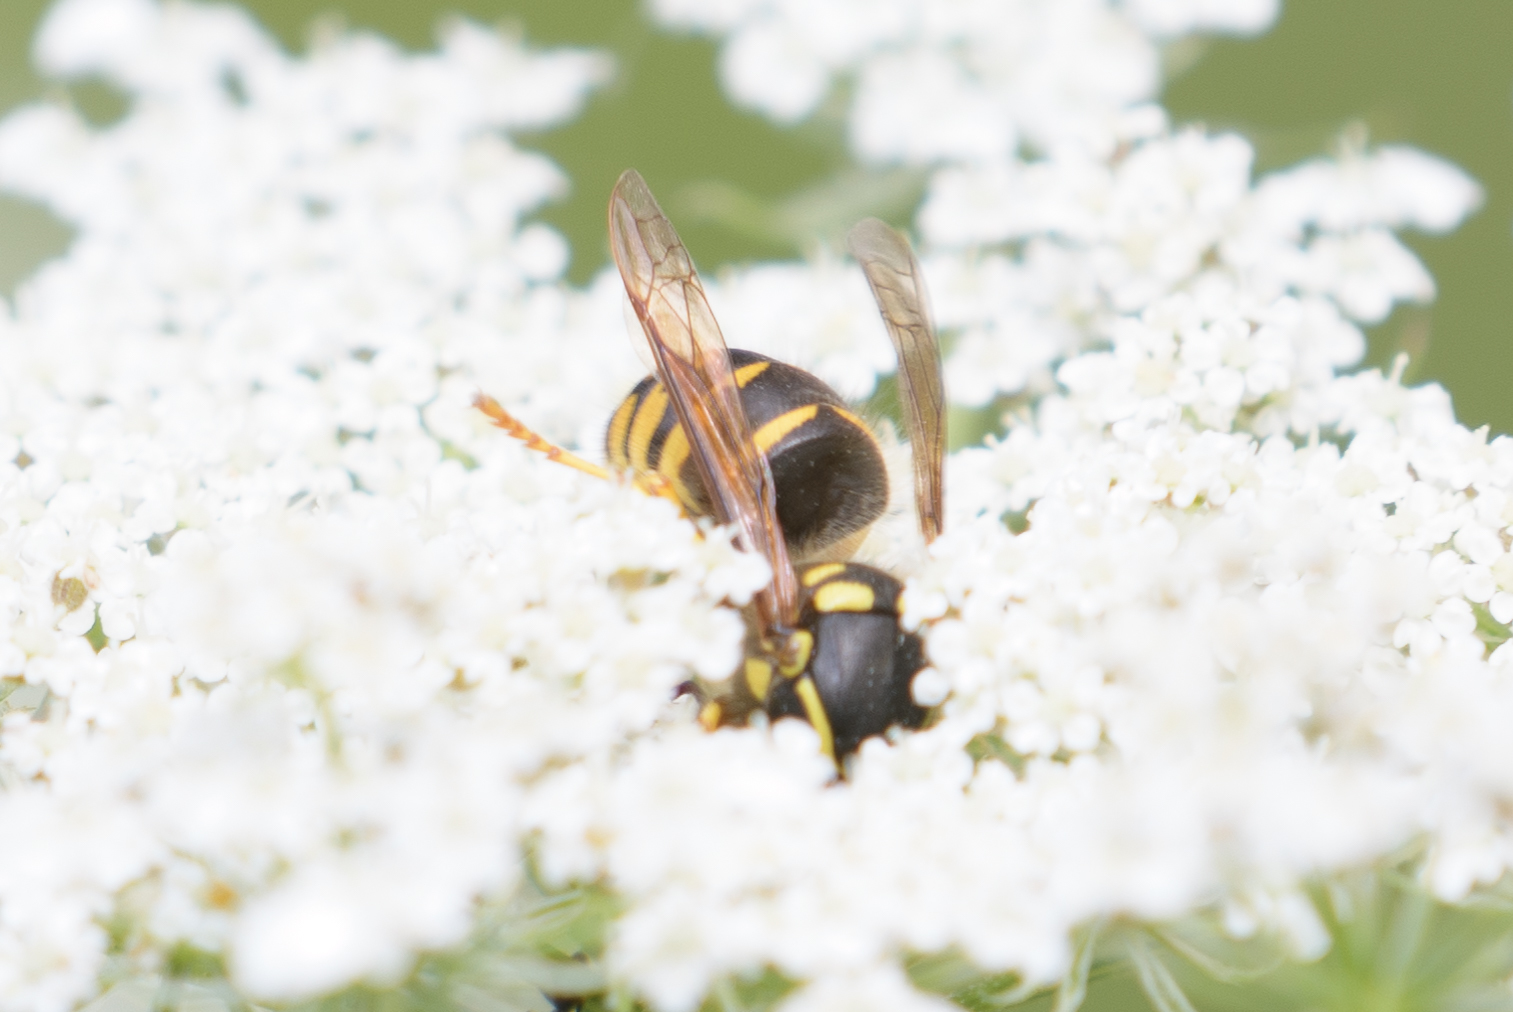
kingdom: Animalia
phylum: Arthropoda
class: Insecta
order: Hymenoptera
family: Vespidae
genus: Dolichovespula
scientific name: Dolichovespula arenaria
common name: Aerial yellowjacket
